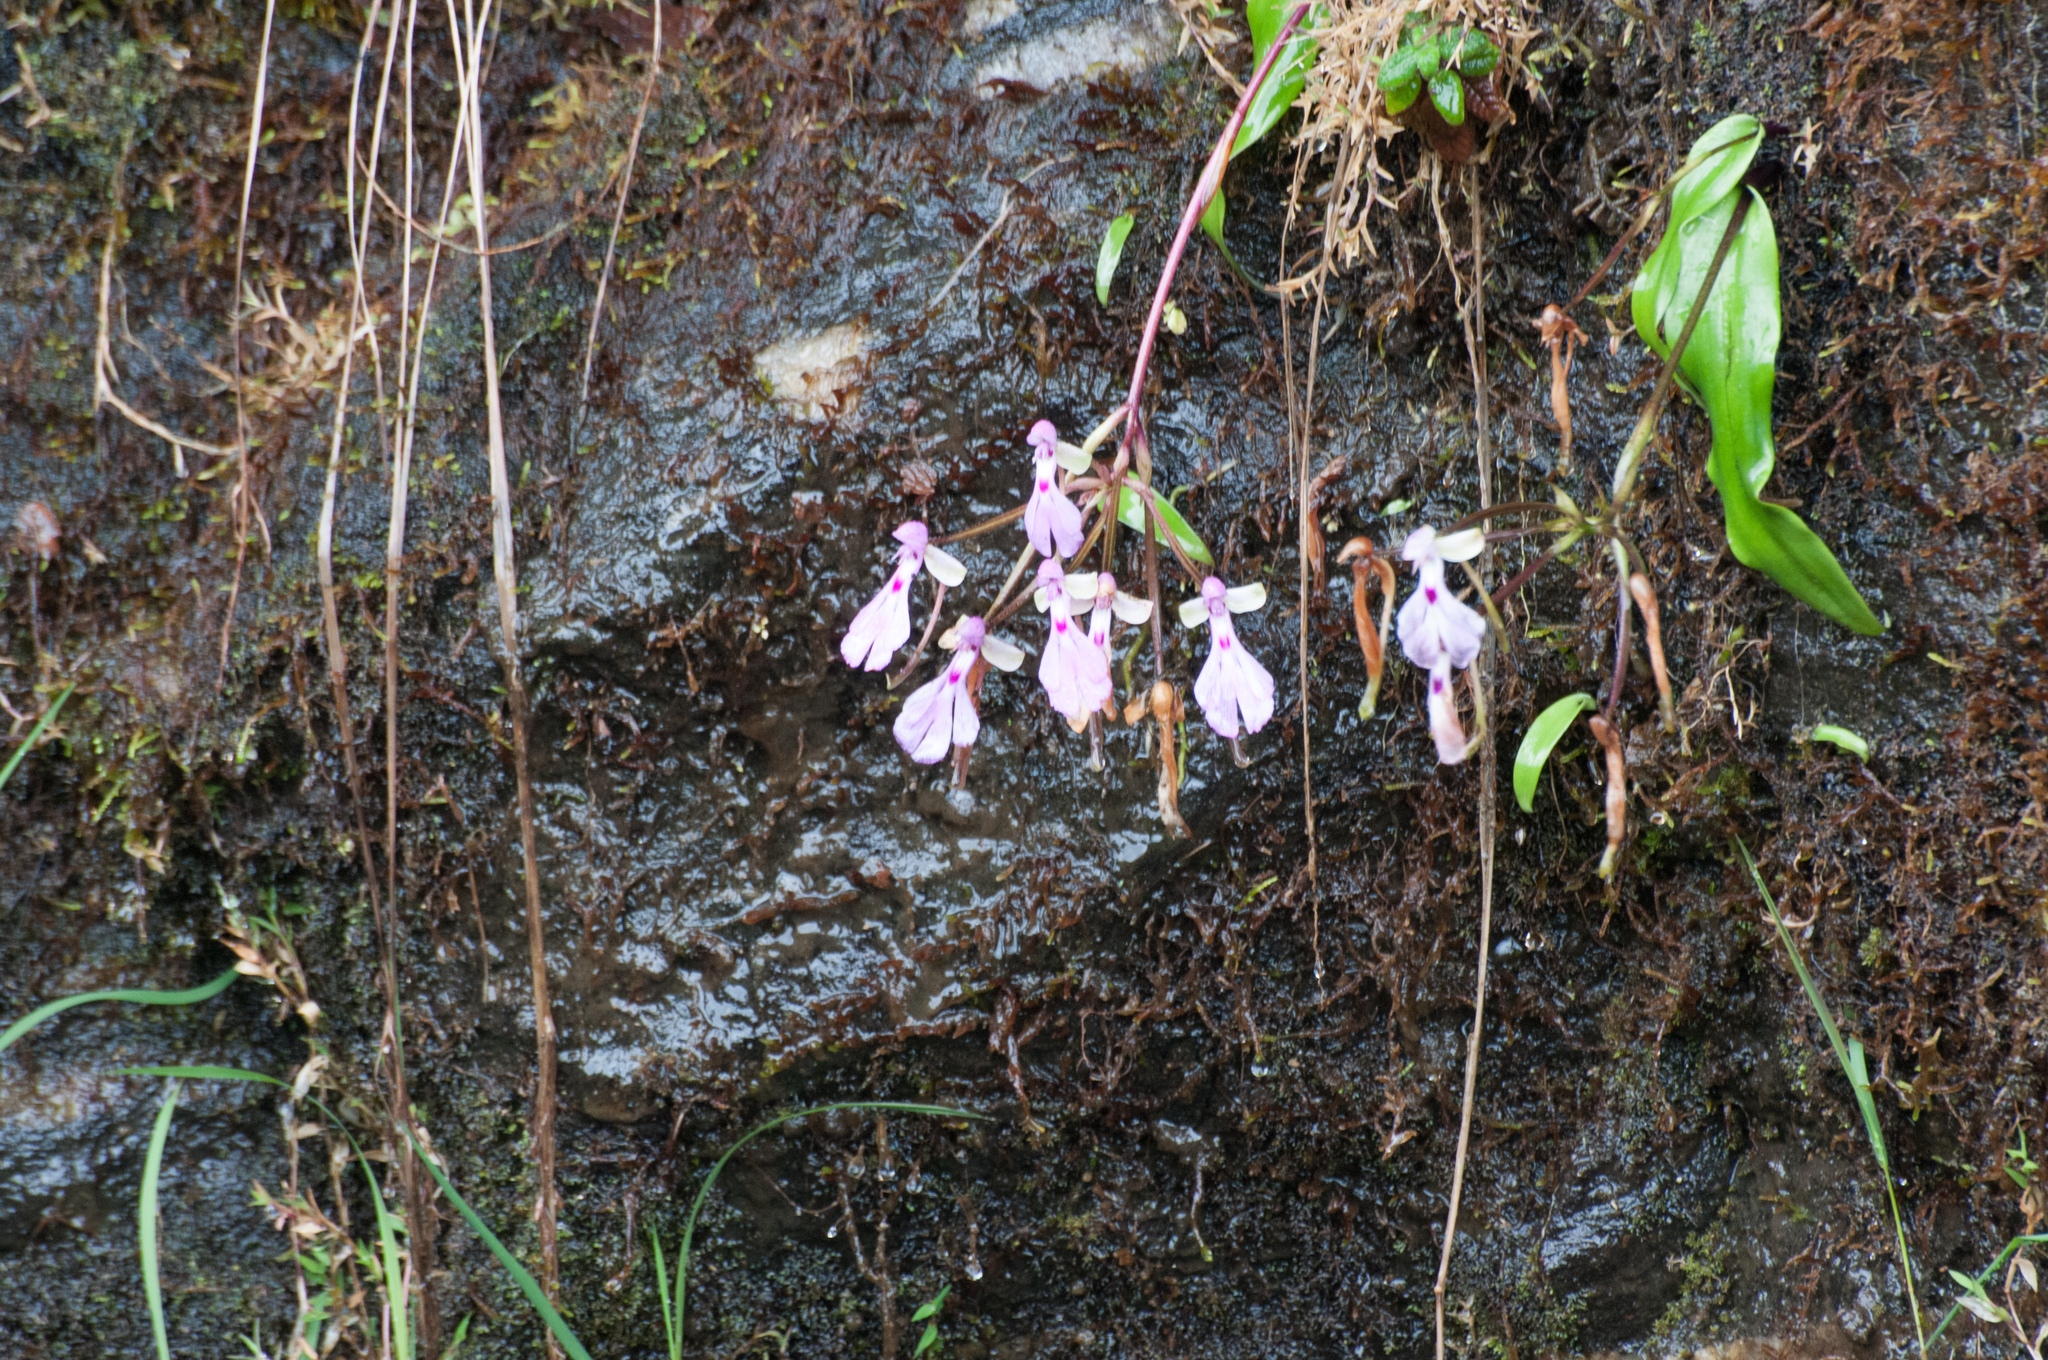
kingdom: Plantae
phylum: Tracheophyta
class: Liliopsida
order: Asparagales
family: Orchidaceae
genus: Cynorkis
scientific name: Cynorkis lowiana
